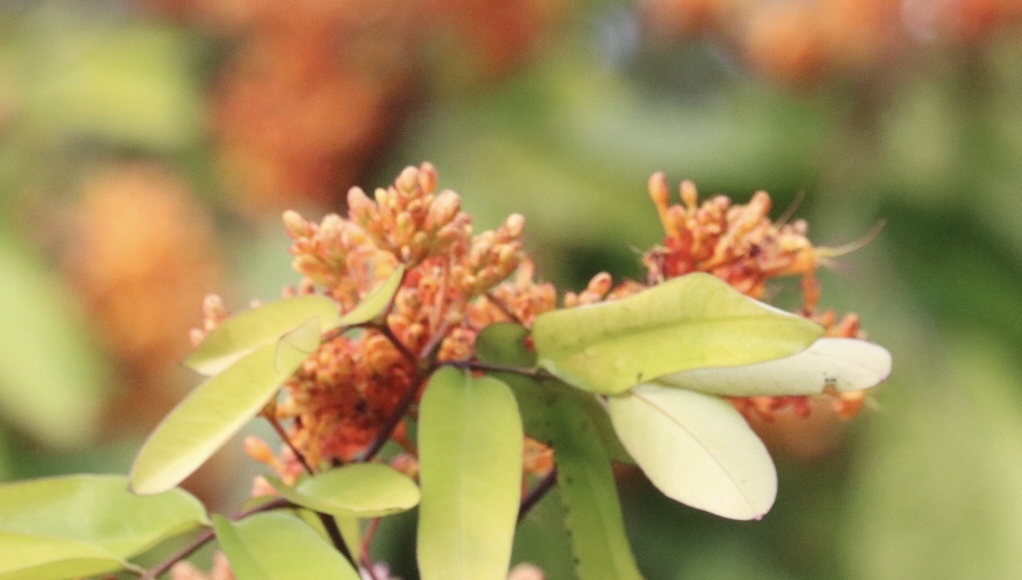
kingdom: Plantae
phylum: Tracheophyta
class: Magnoliopsida
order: Fabales
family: Fabaceae
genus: Saraca
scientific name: Saraca indica
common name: Asoka-tree
